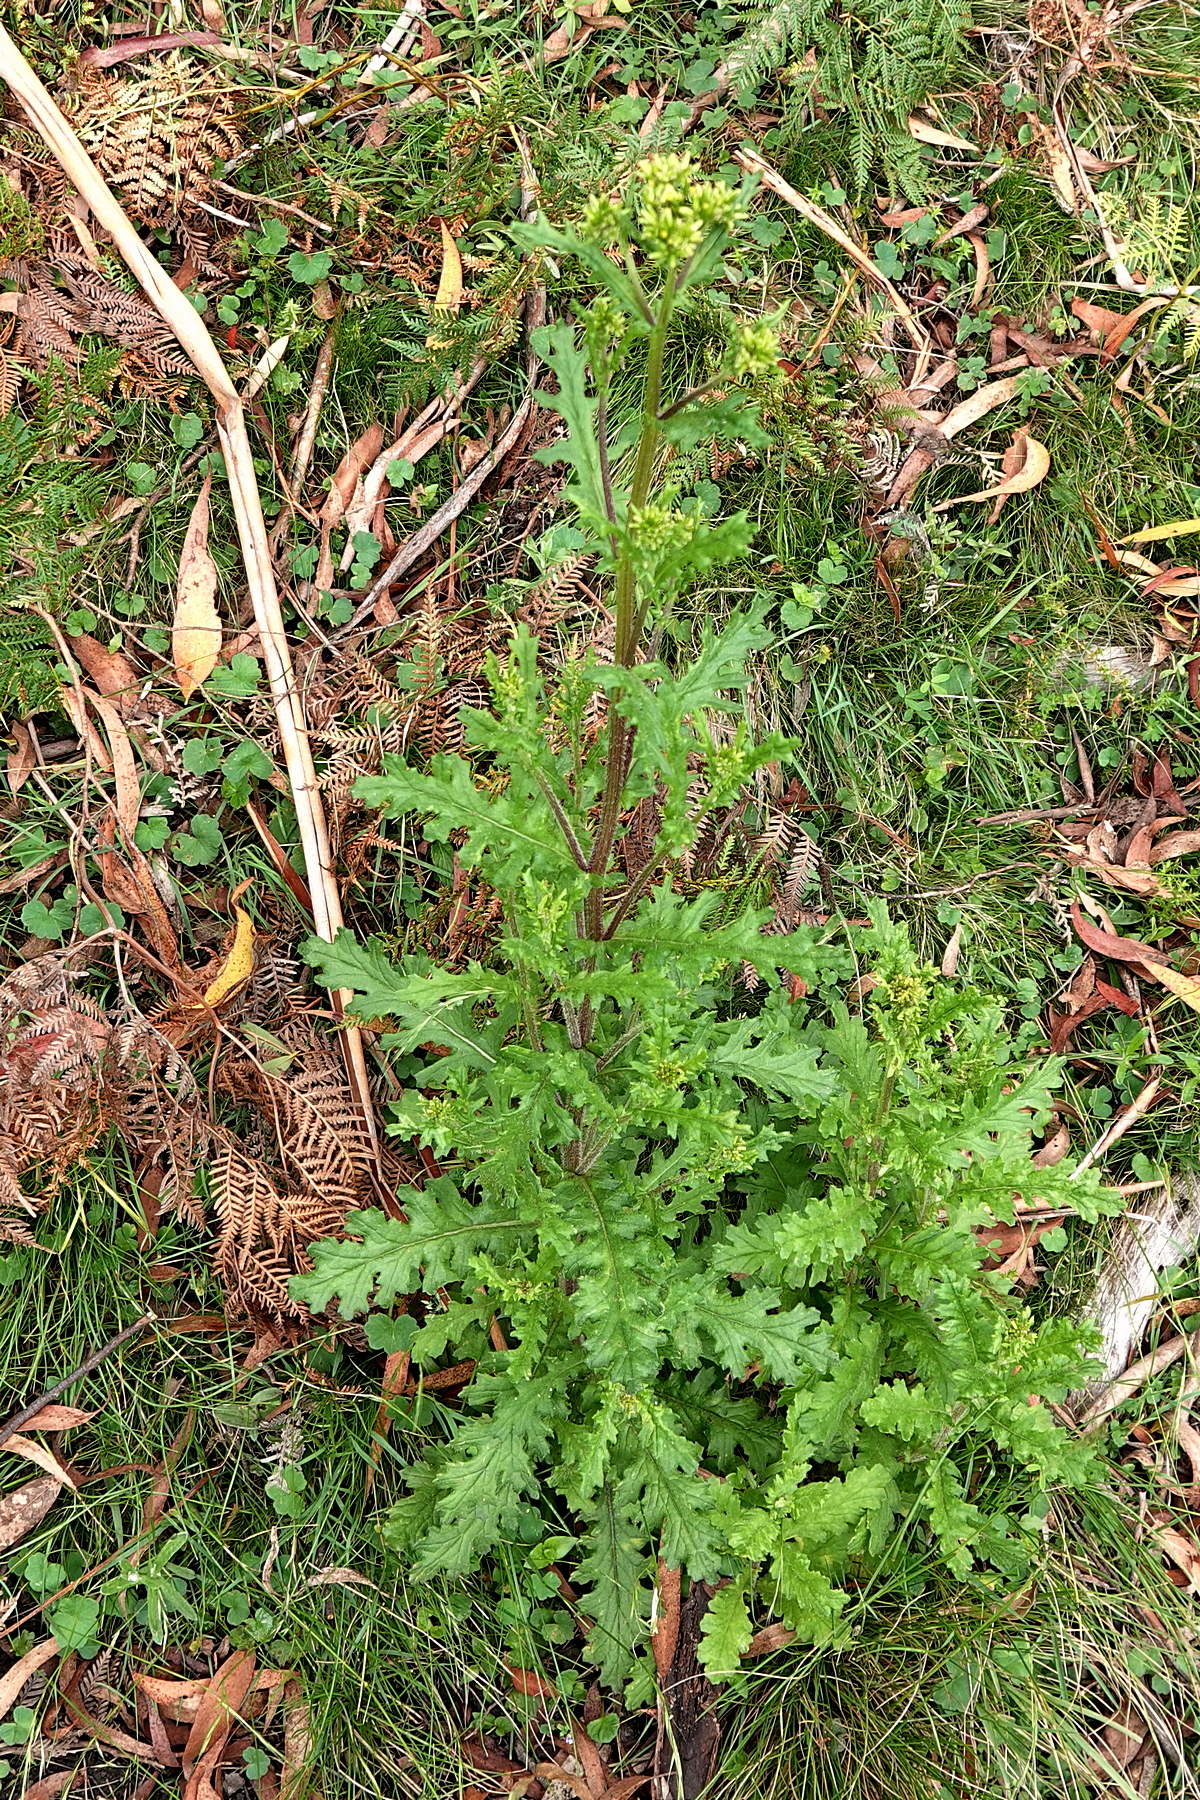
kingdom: Plantae
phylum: Tracheophyta
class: Magnoliopsida
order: Asterales
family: Asteraceae
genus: Senecio
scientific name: Senecio distalilobatus
